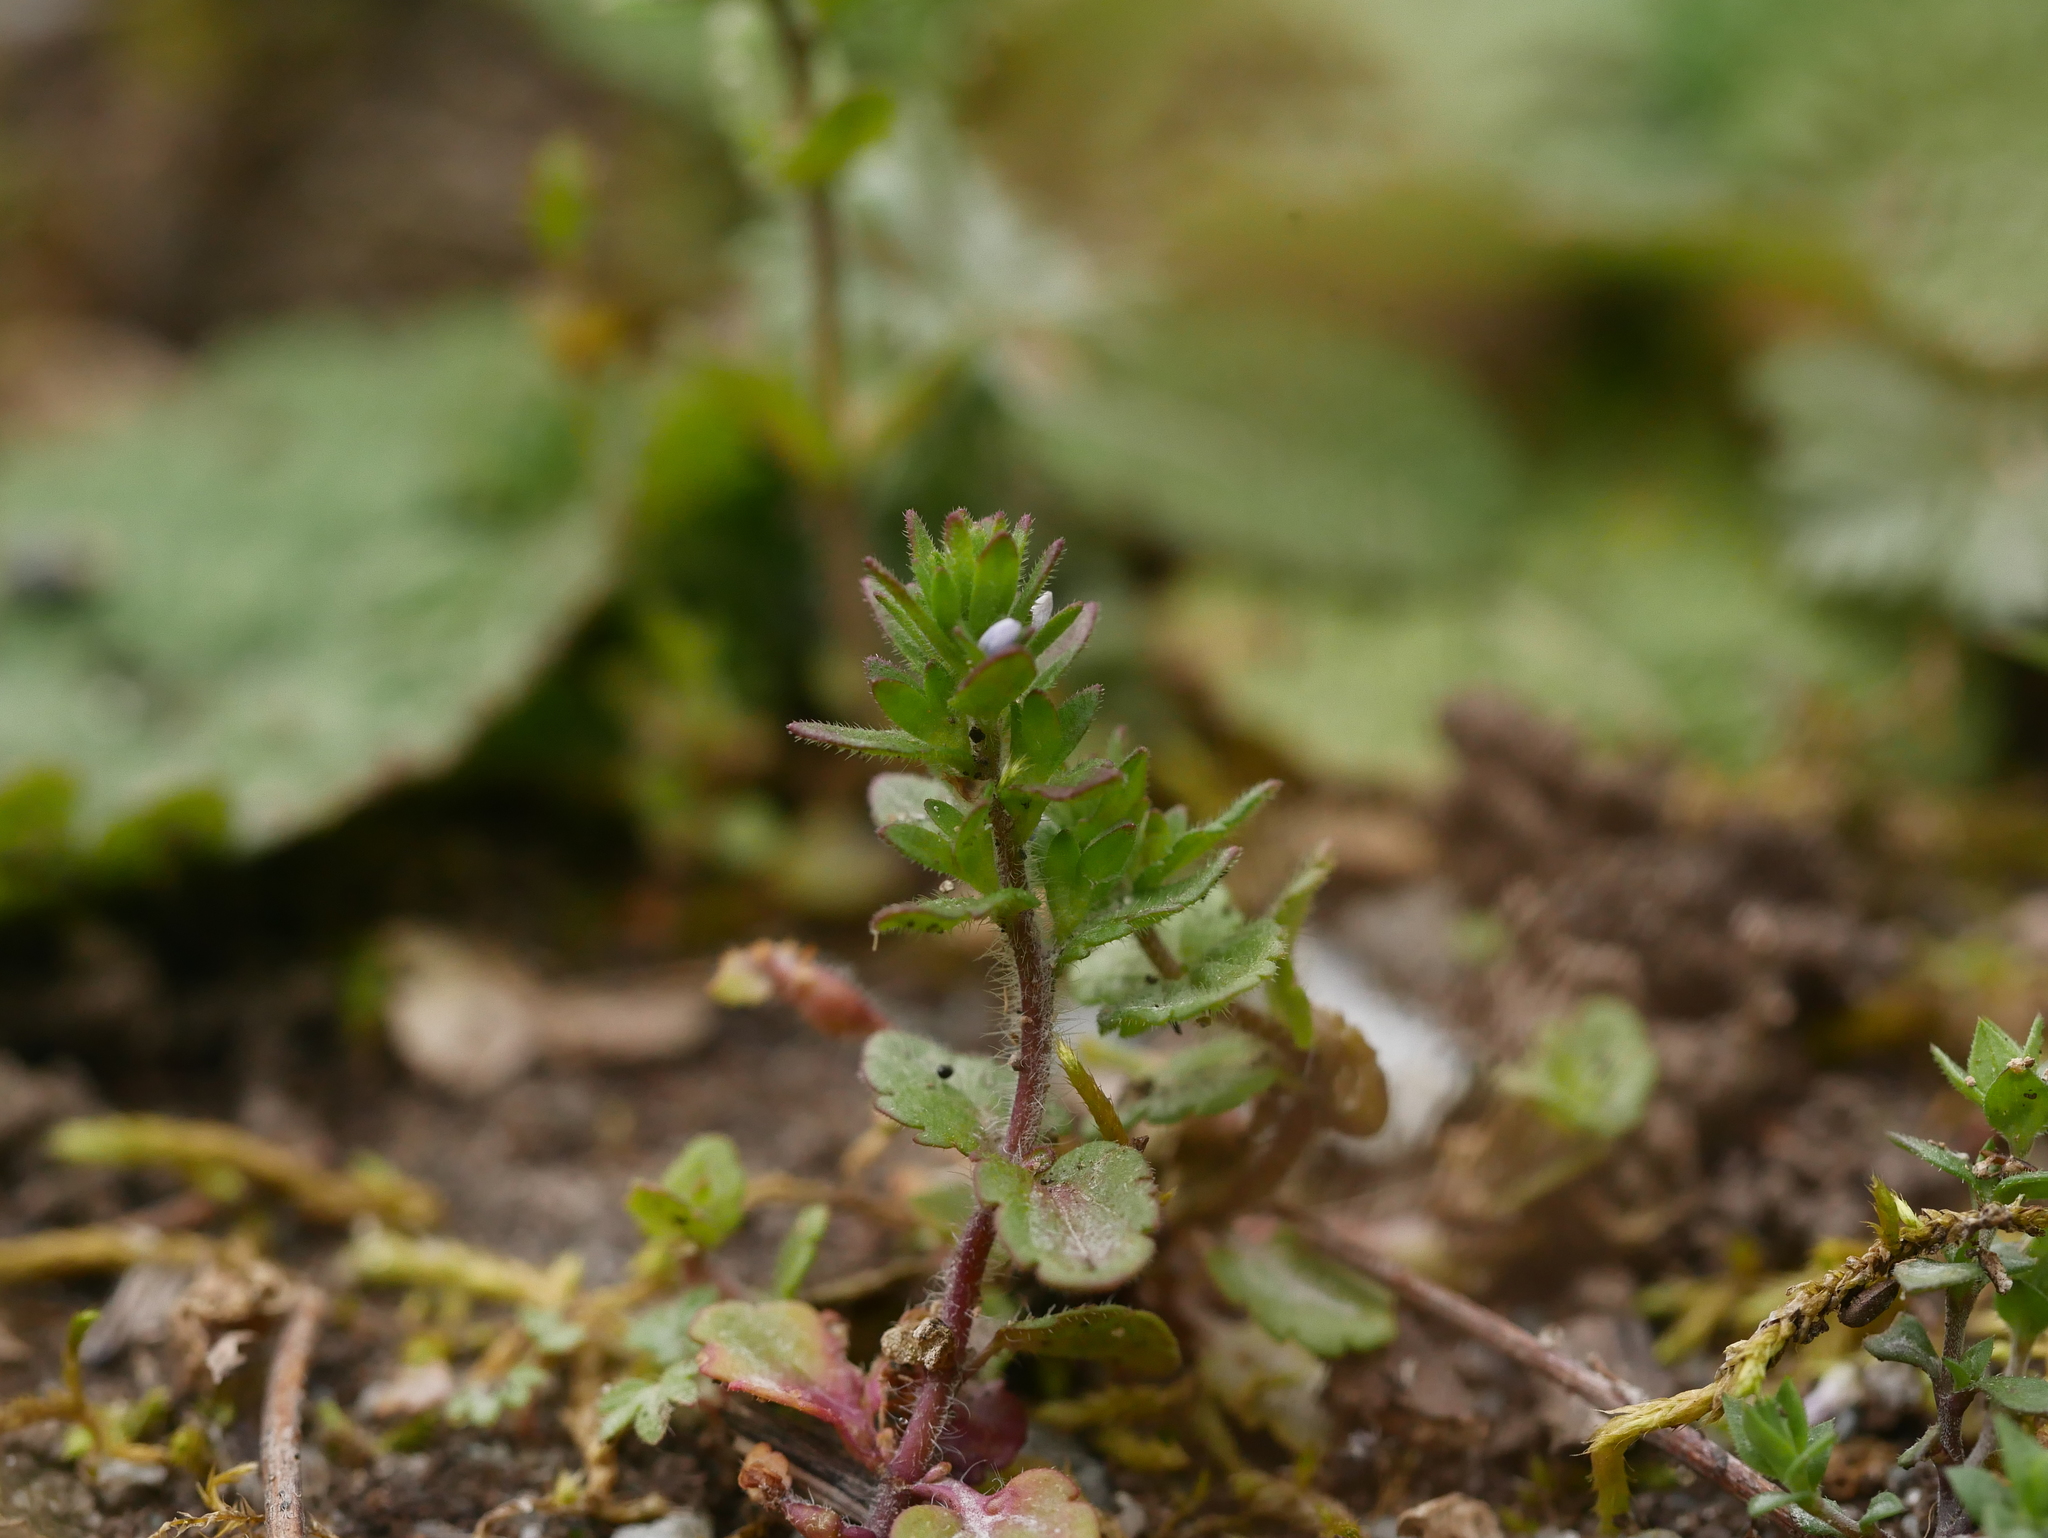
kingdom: Plantae
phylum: Tracheophyta
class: Magnoliopsida
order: Lamiales
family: Plantaginaceae
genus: Veronica
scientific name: Veronica arvensis
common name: Corn speedwell
